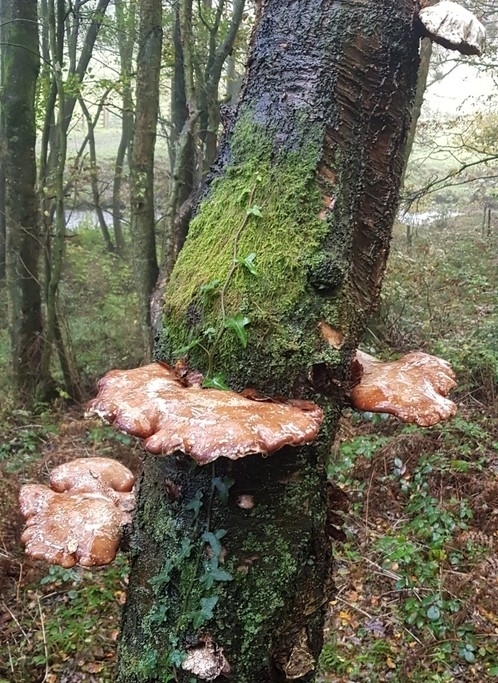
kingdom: Fungi
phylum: Basidiomycota
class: Agaricomycetes
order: Polyporales
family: Fomitopsidaceae
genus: Fomitopsis
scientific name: Fomitopsis betulina
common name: Birch polypore
